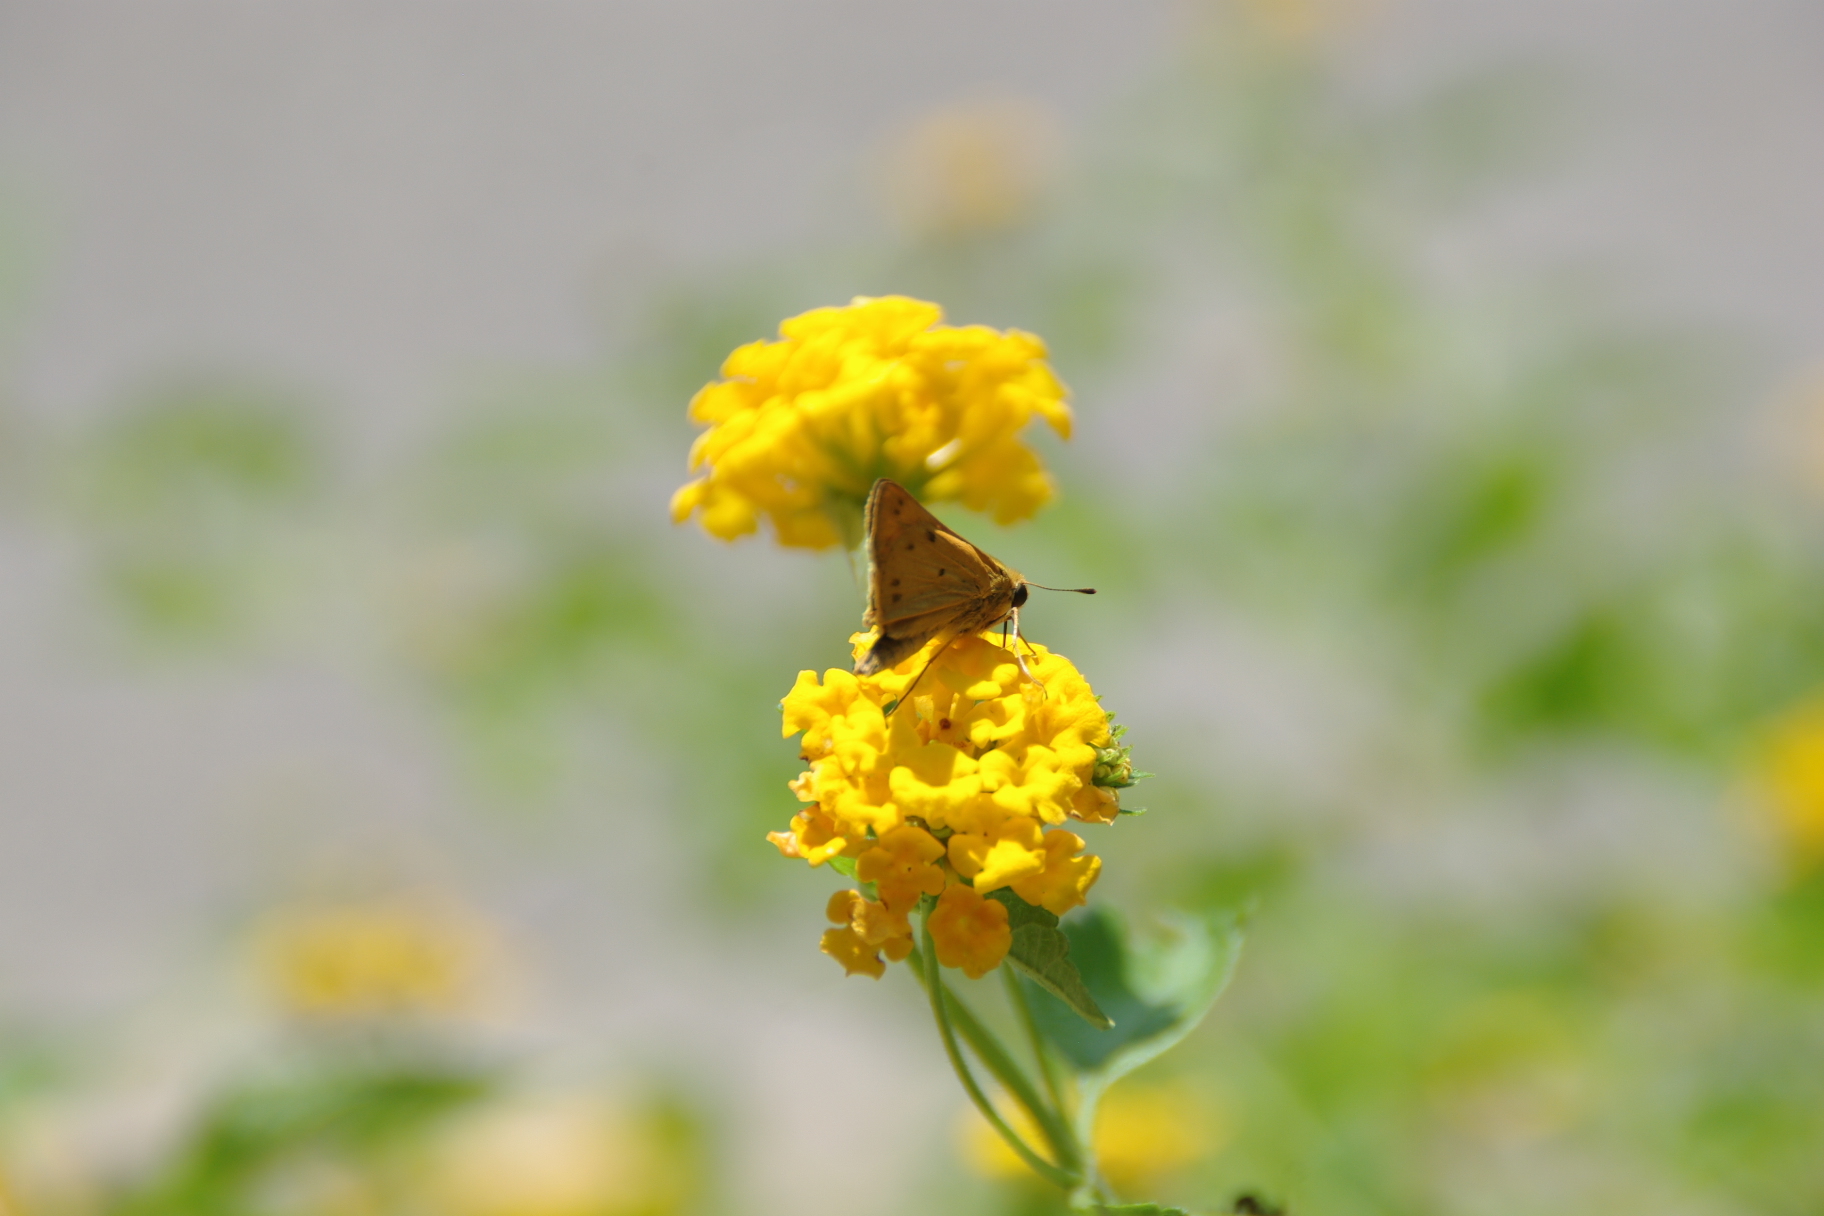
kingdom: Animalia
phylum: Arthropoda
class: Insecta
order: Lepidoptera
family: Hesperiidae
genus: Hylephila
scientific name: Hylephila phyleus
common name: Fiery skipper
